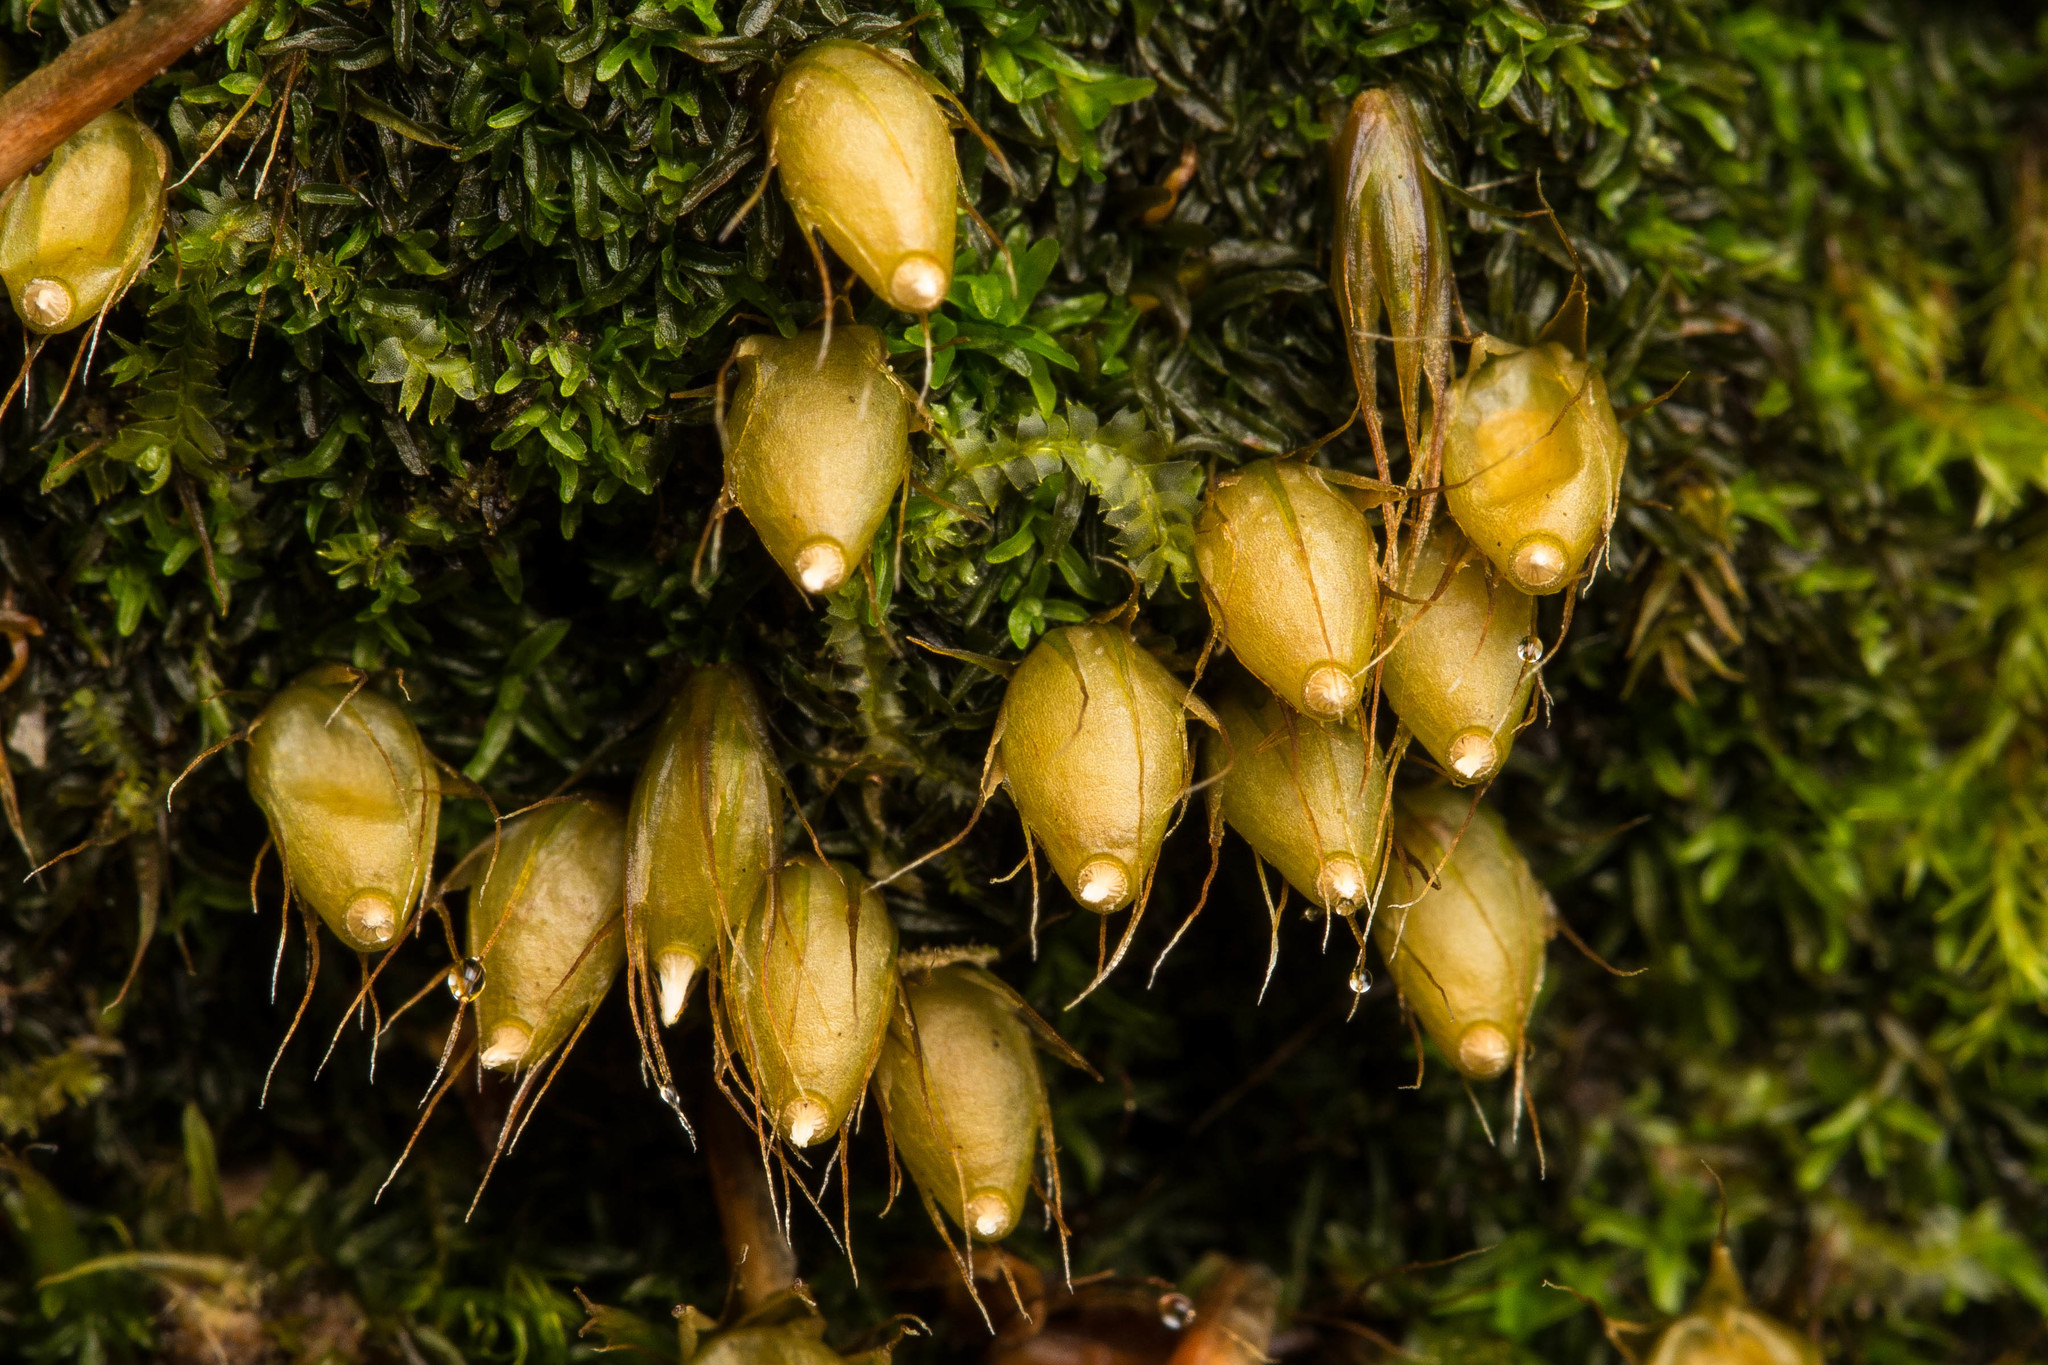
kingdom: Plantae
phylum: Bryophyta
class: Bryopsida
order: Diphysciales
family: Diphysciaceae
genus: Diphyscium
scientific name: Diphyscium foliosum
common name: Nut moss
